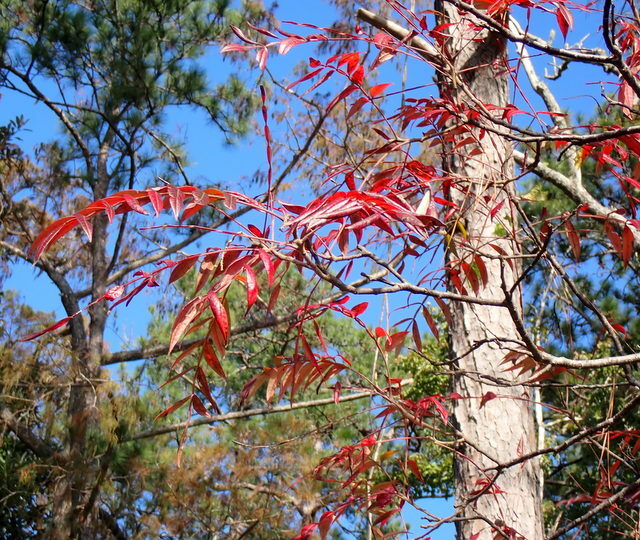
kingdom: Plantae
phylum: Tracheophyta
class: Magnoliopsida
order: Sapindales
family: Anacardiaceae
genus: Rhus
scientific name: Rhus copallina
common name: Shining sumac
